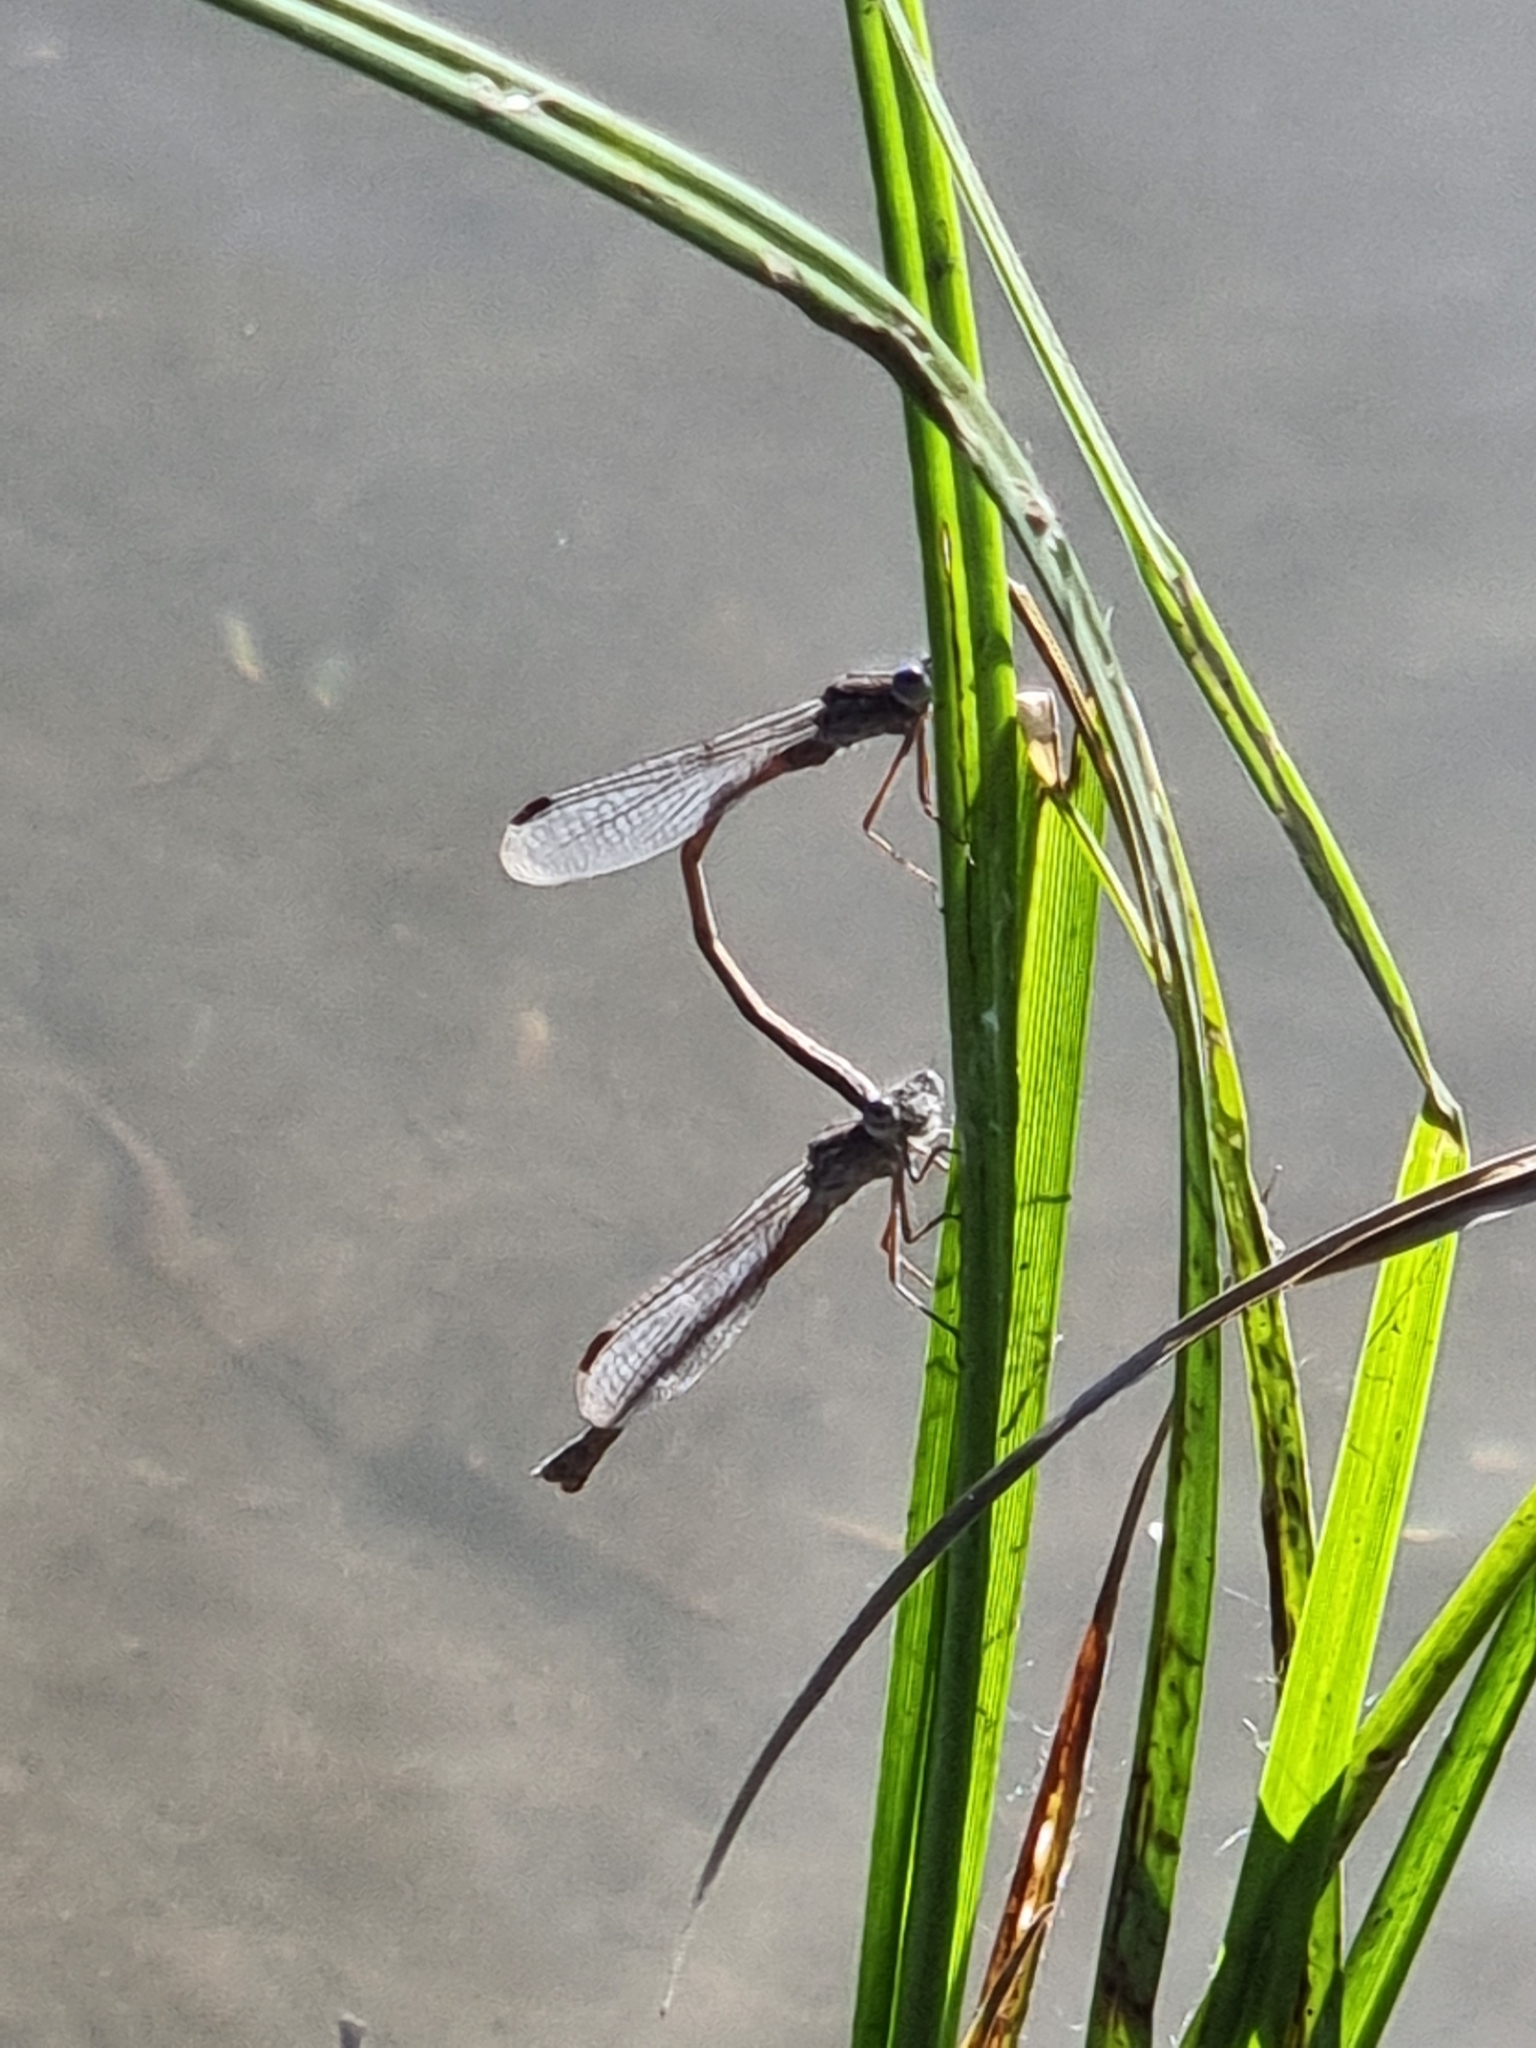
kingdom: Animalia
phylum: Arthropoda
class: Insecta
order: Odonata
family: Lestidae
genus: Sympecma
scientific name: Sympecma paedisca
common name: Siberian winter damsel
